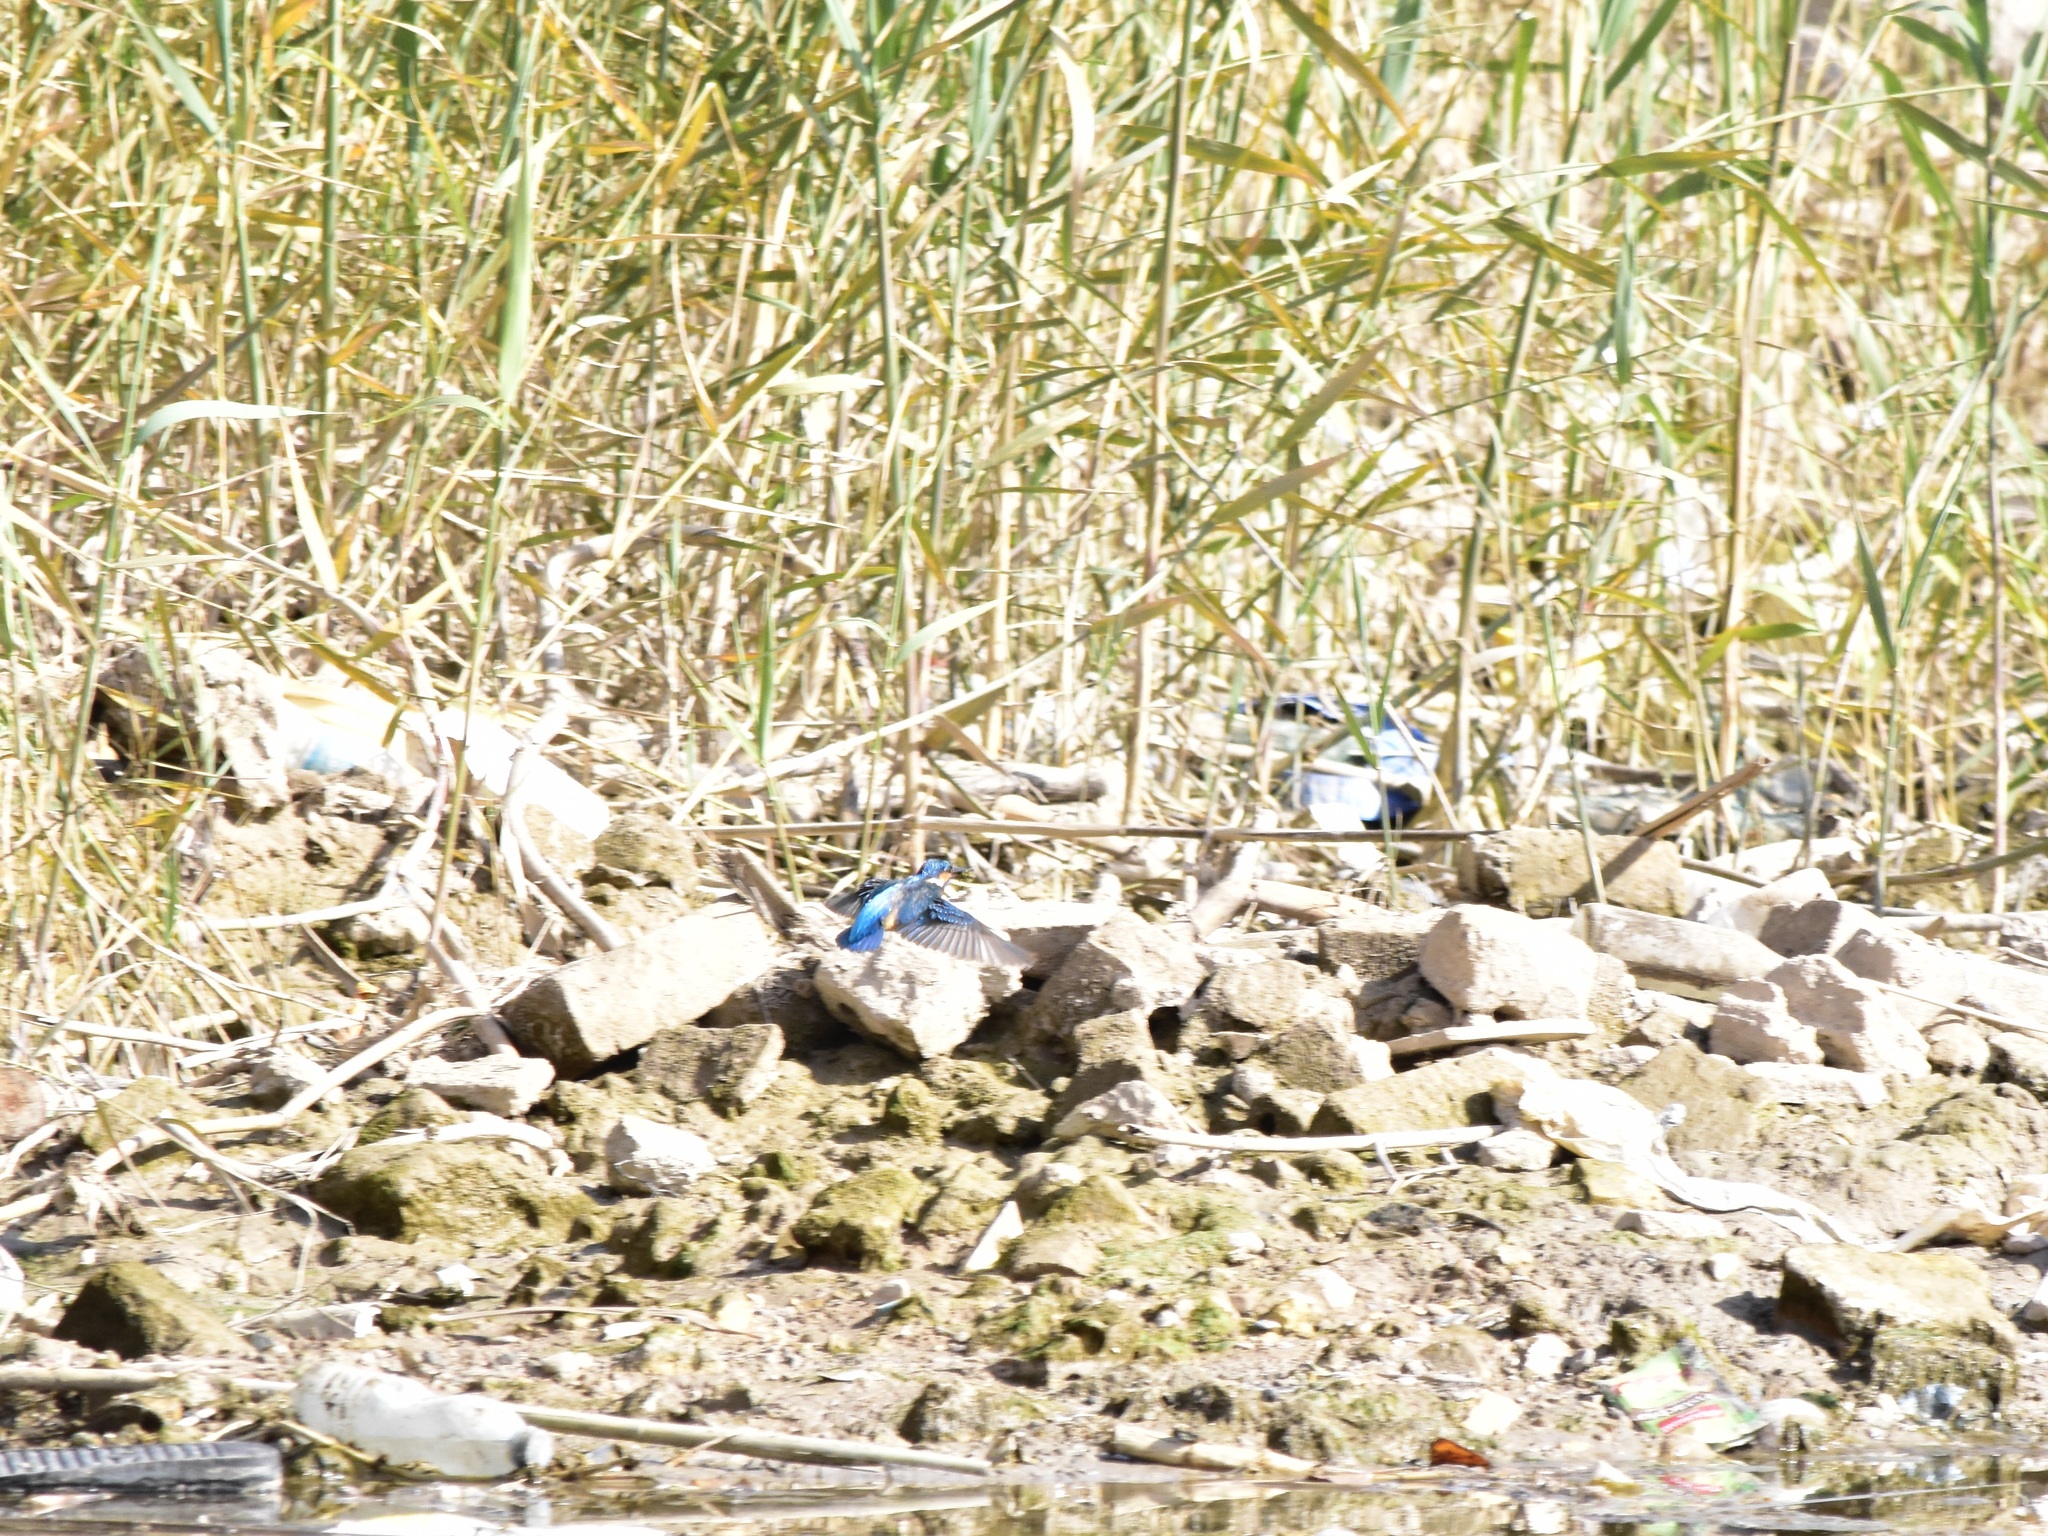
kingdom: Animalia
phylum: Chordata
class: Aves
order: Coraciiformes
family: Alcedinidae
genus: Alcedo
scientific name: Alcedo atthis
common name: Common kingfisher
